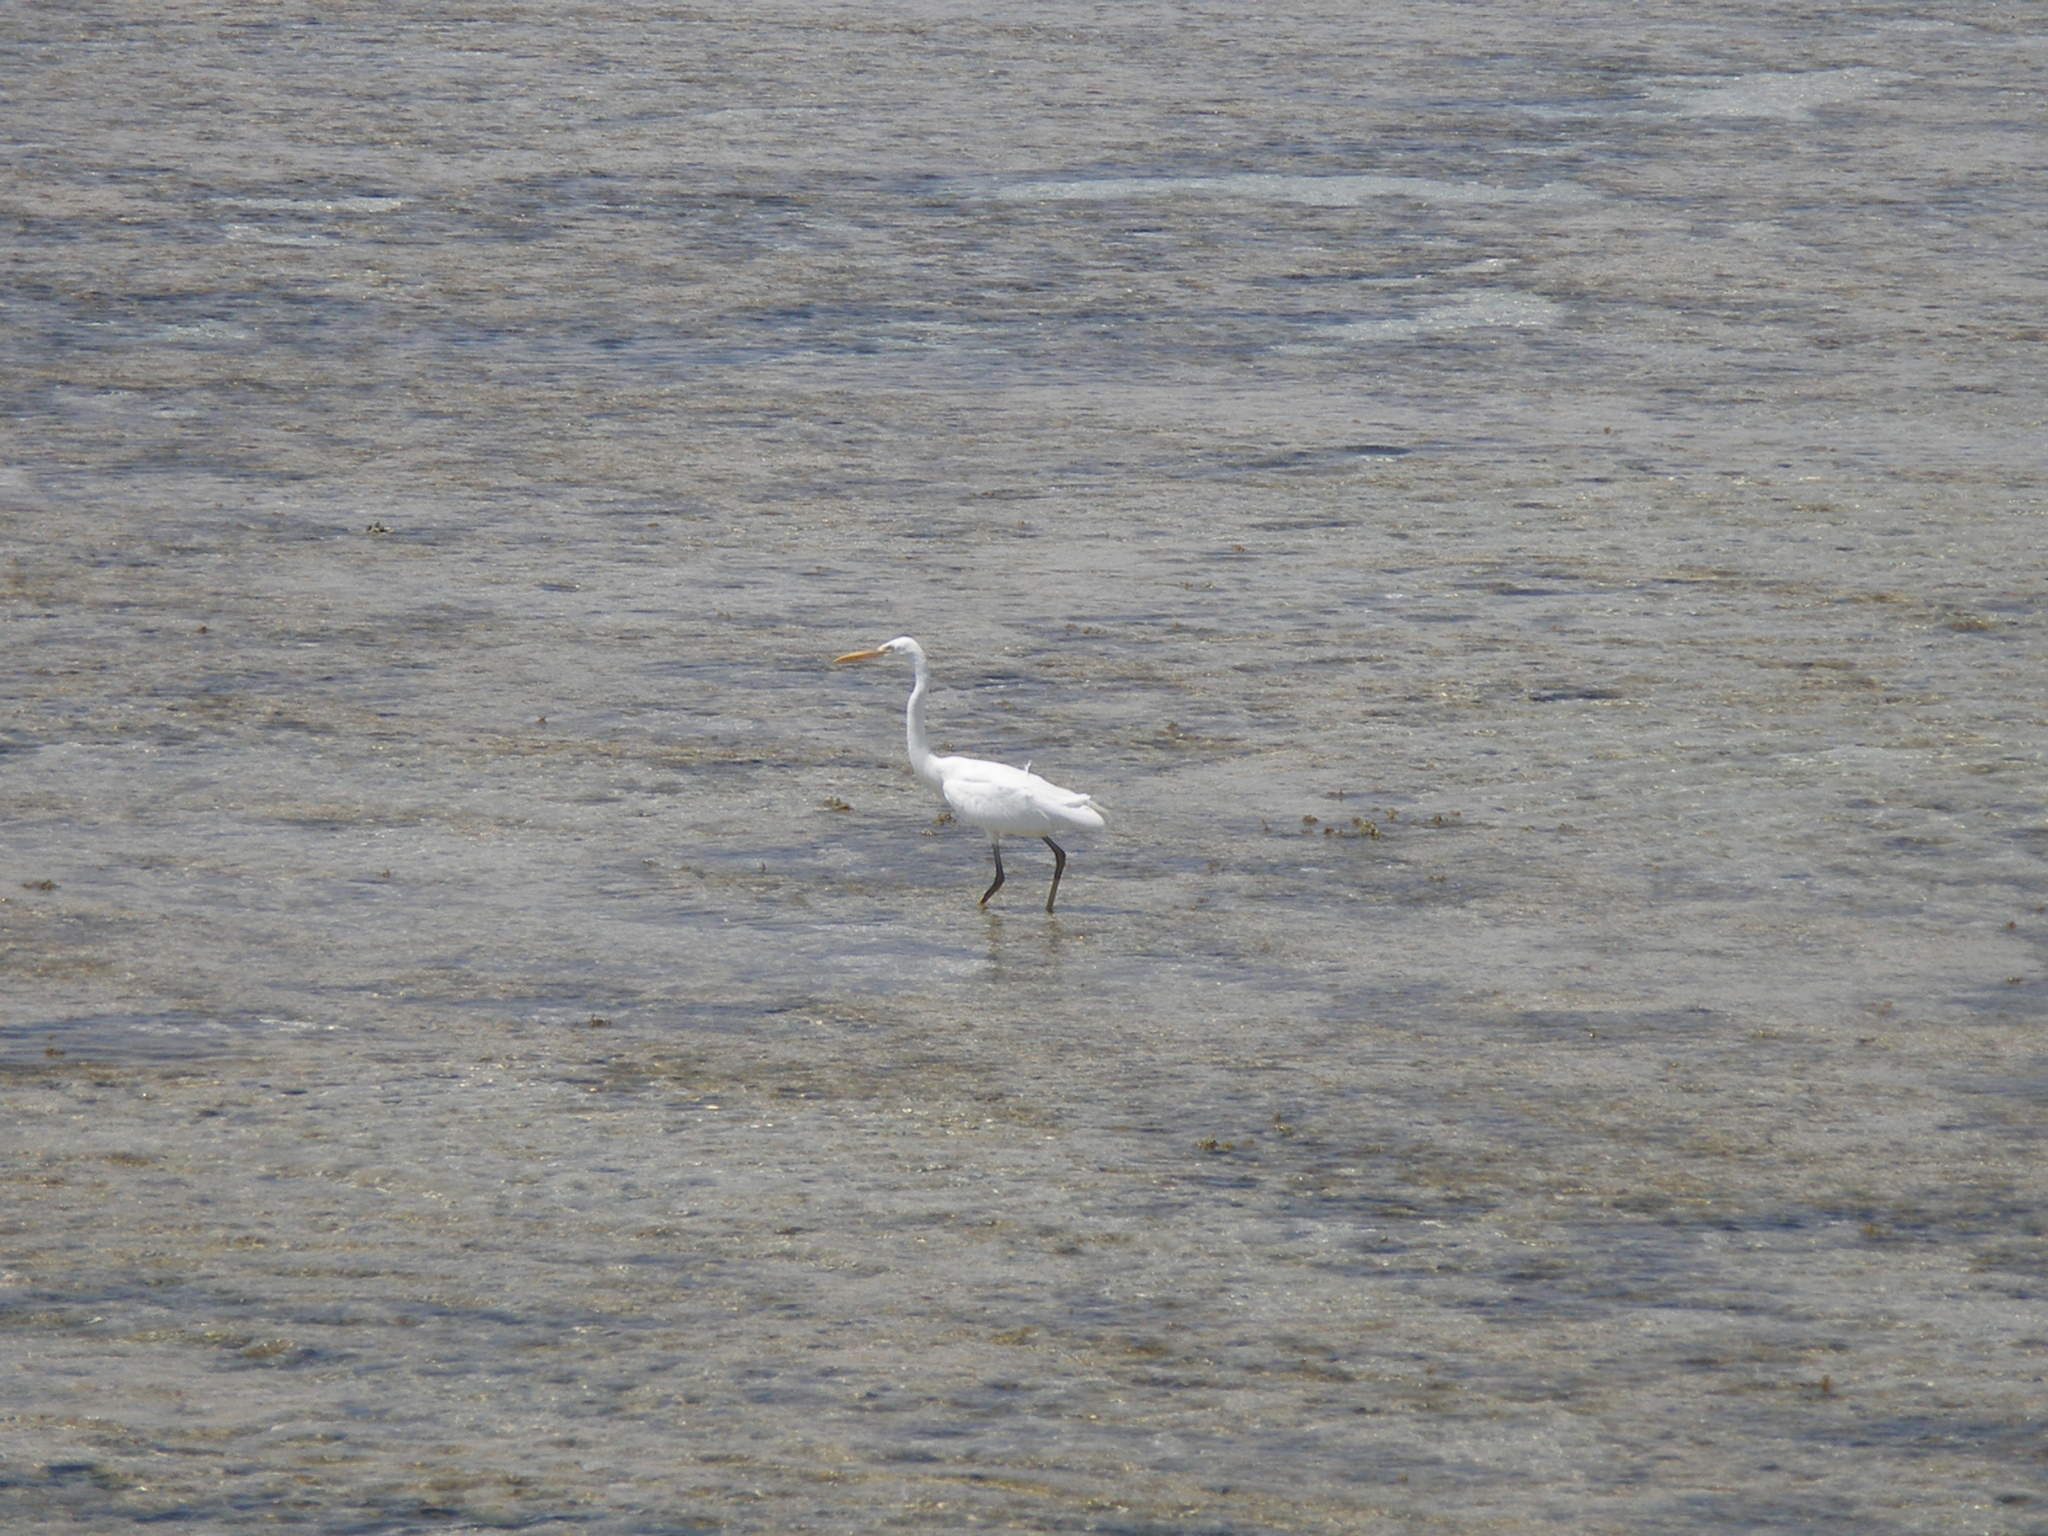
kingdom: Animalia
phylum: Chordata
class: Aves
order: Pelecaniformes
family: Ardeidae
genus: Egretta
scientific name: Egretta gularis
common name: Western reef-heron
